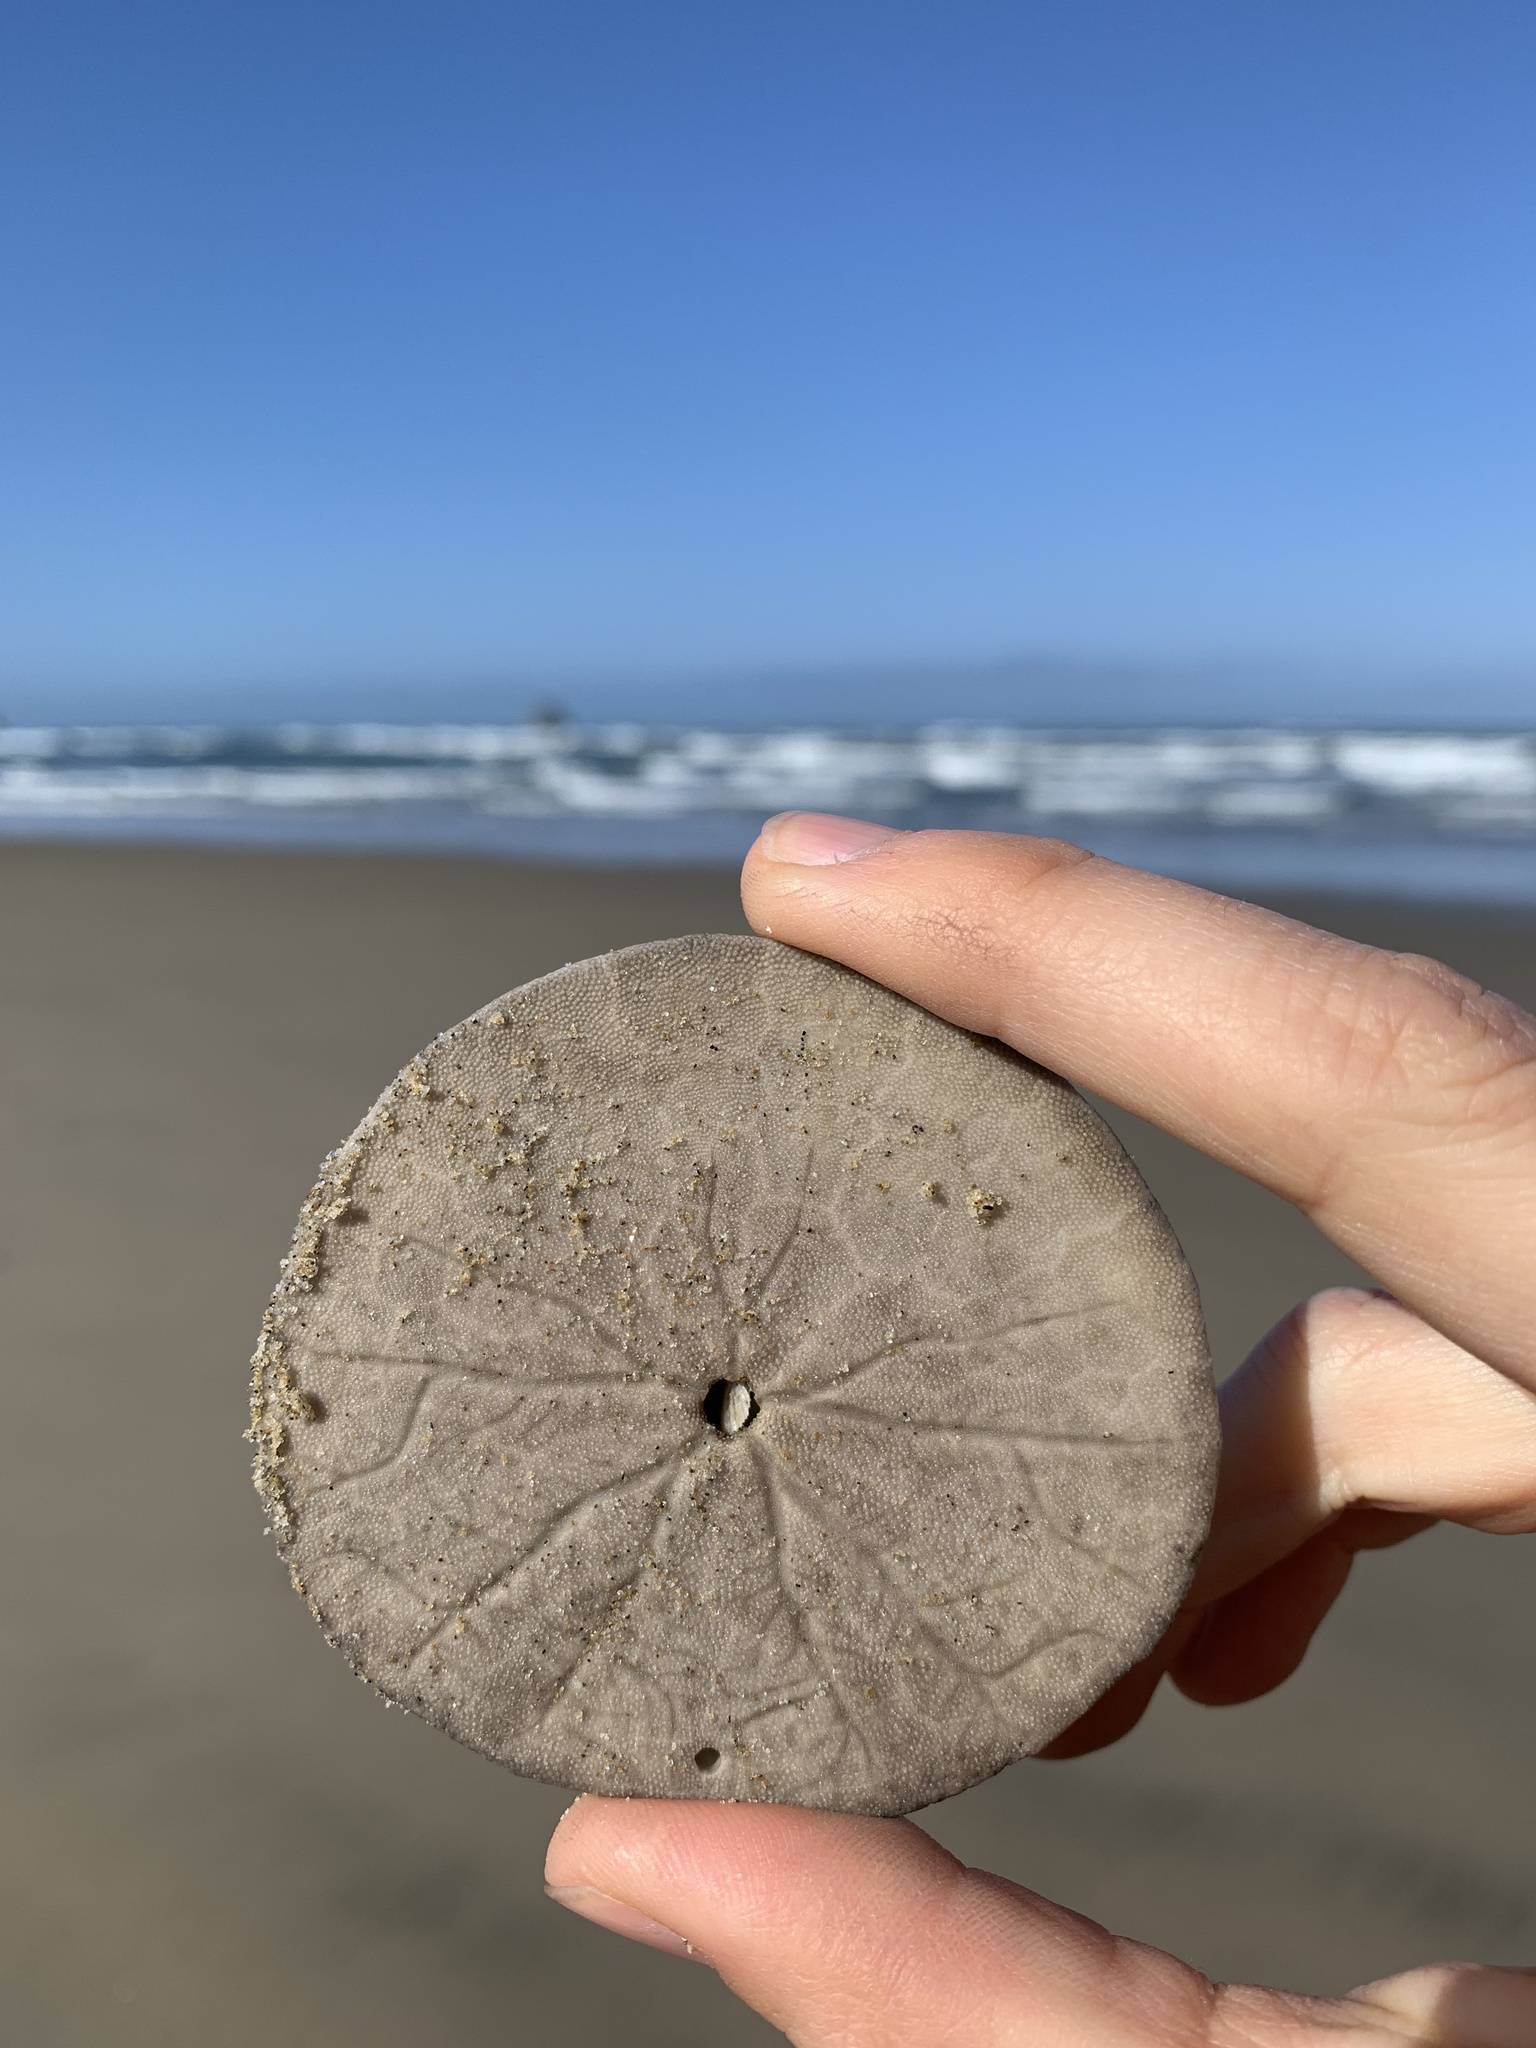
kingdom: Animalia
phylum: Echinodermata
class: Echinoidea
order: Echinolampadacea
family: Dendrasteridae
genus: Dendraster
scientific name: Dendraster excentricus
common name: Eccentric sand dollar sea urchin
